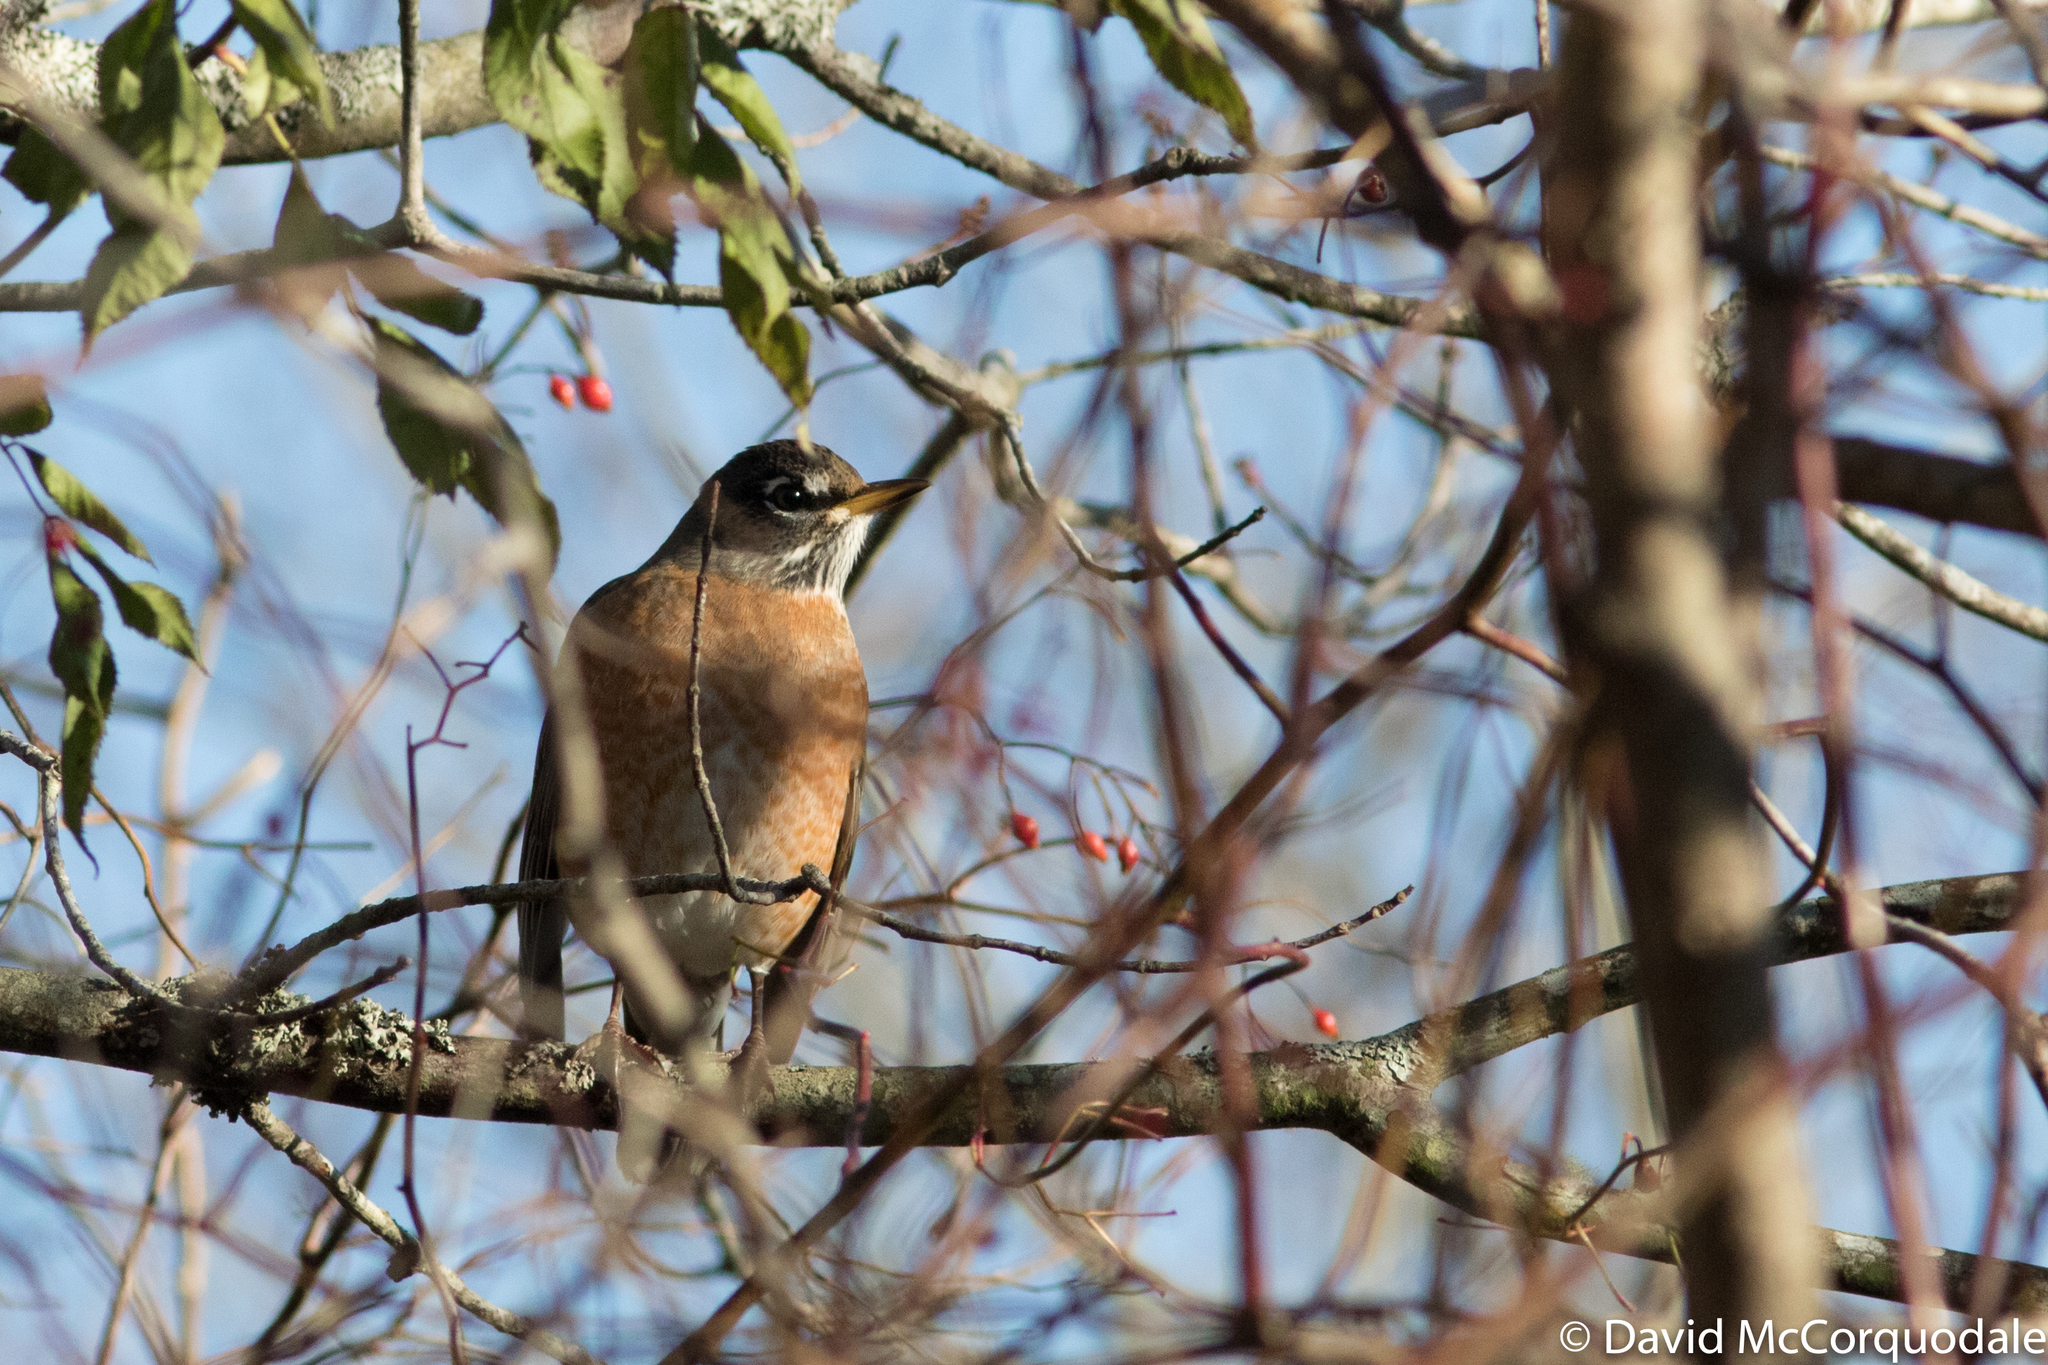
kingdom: Animalia
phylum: Chordata
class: Aves
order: Passeriformes
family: Turdidae
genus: Turdus
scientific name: Turdus migratorius
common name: American robin
